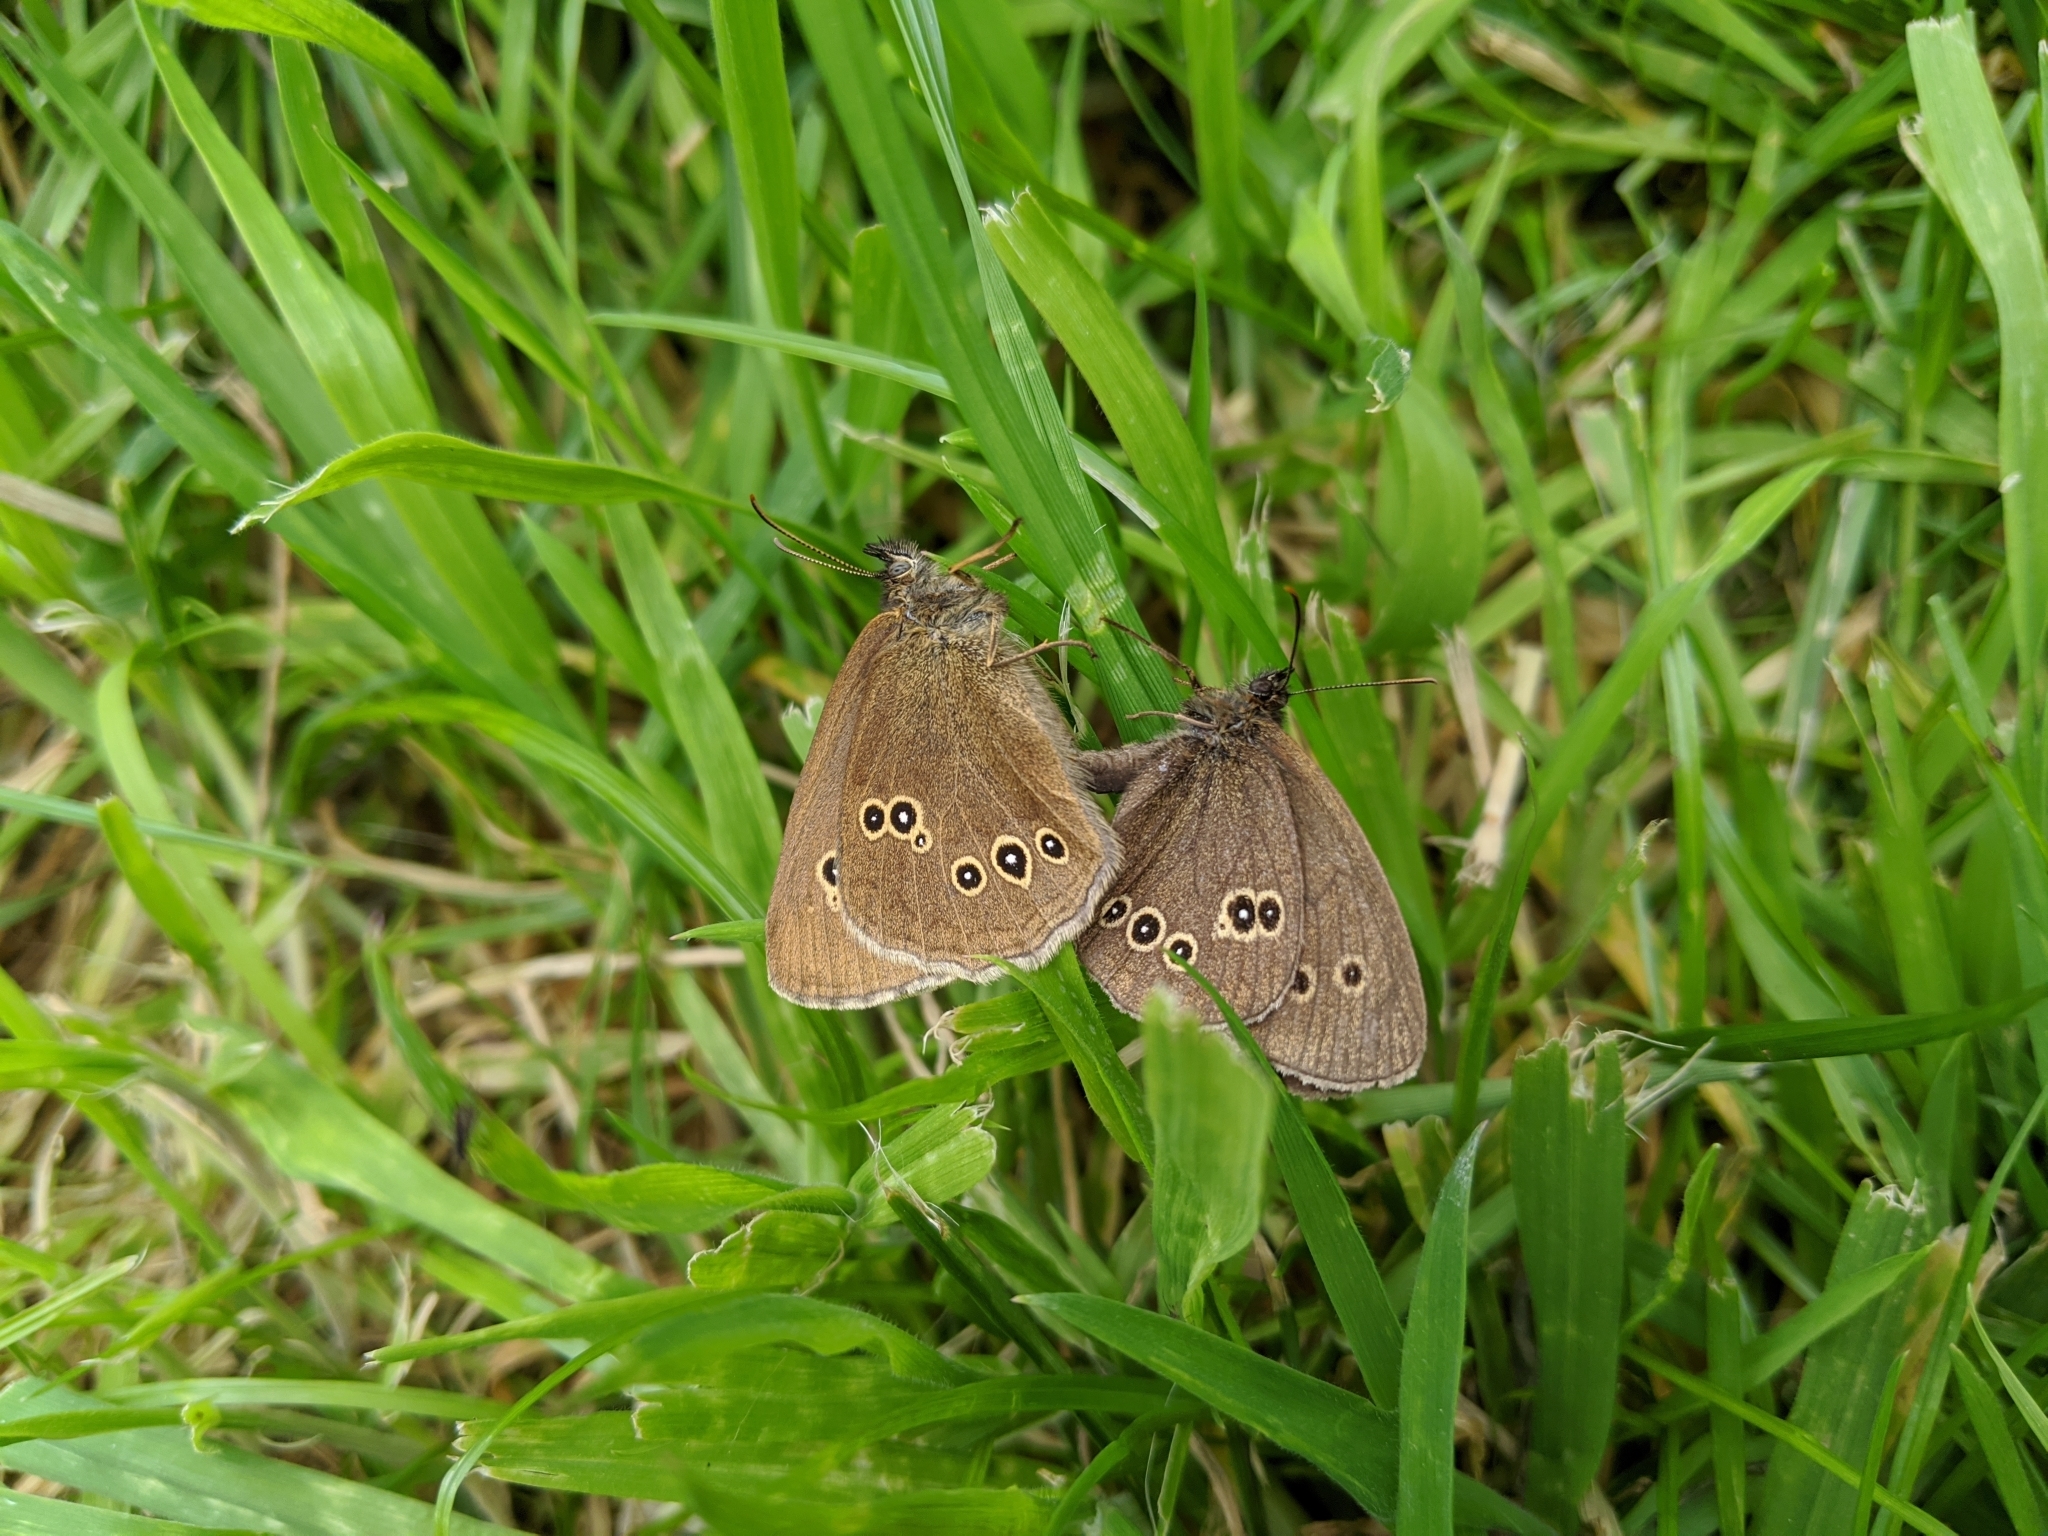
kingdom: Animalia
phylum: Arthropoda
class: Insecta
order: Lepidoptera
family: Nymphalidae
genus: Aphantopus
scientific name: Aphantopus hyperantus
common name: Ringlet
